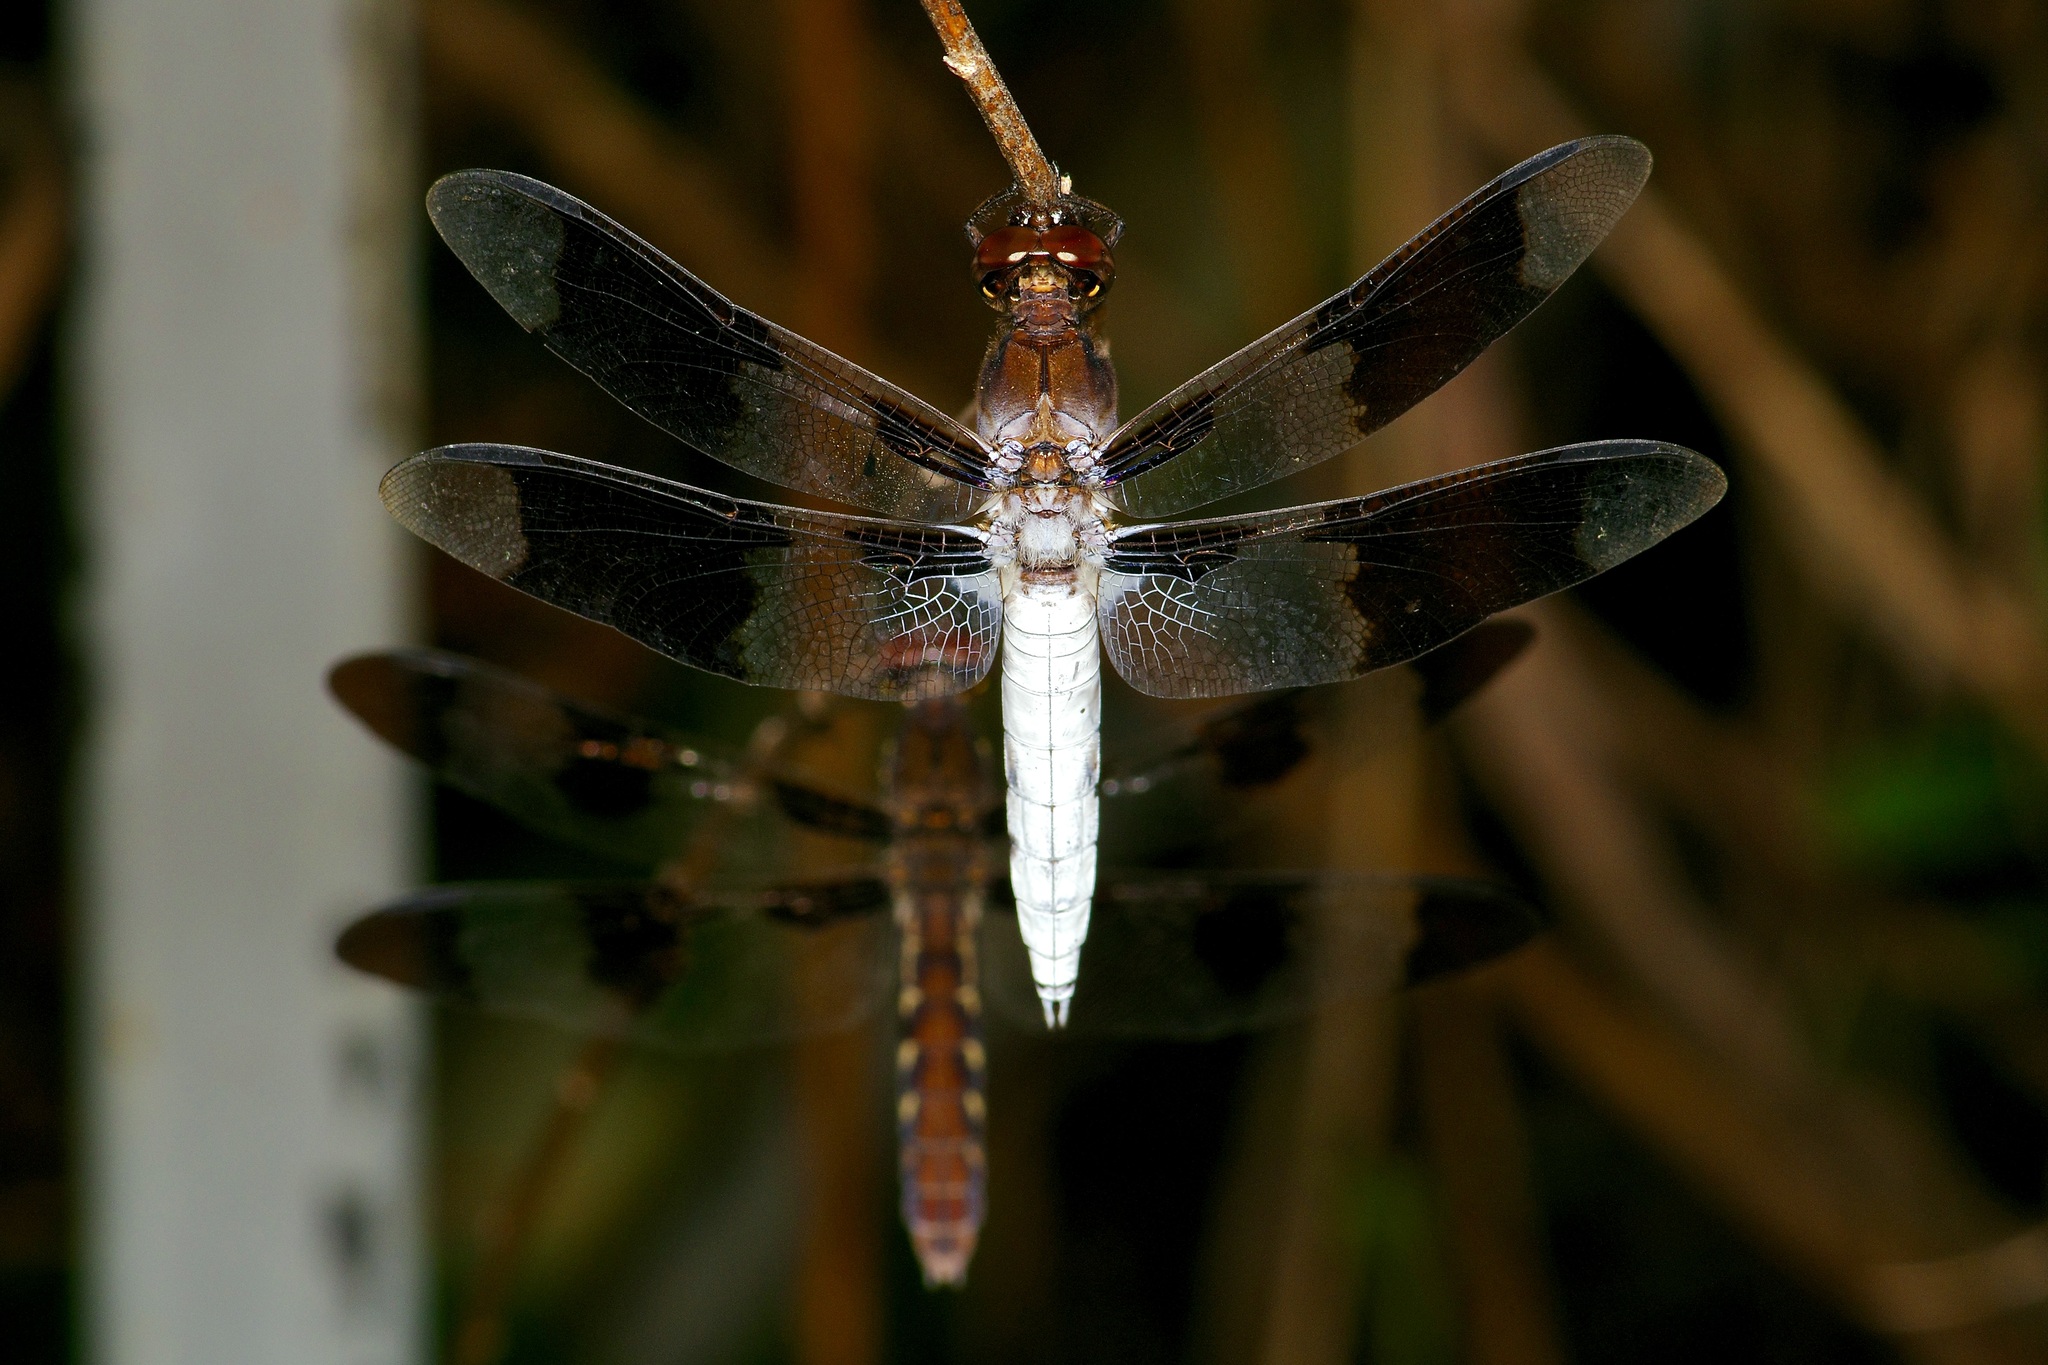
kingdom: Animalia
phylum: Arthropoda
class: Insecta
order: Odonata
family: Libellulidae
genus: Plathemis
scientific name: Plathemis lydia
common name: Common whitetail
